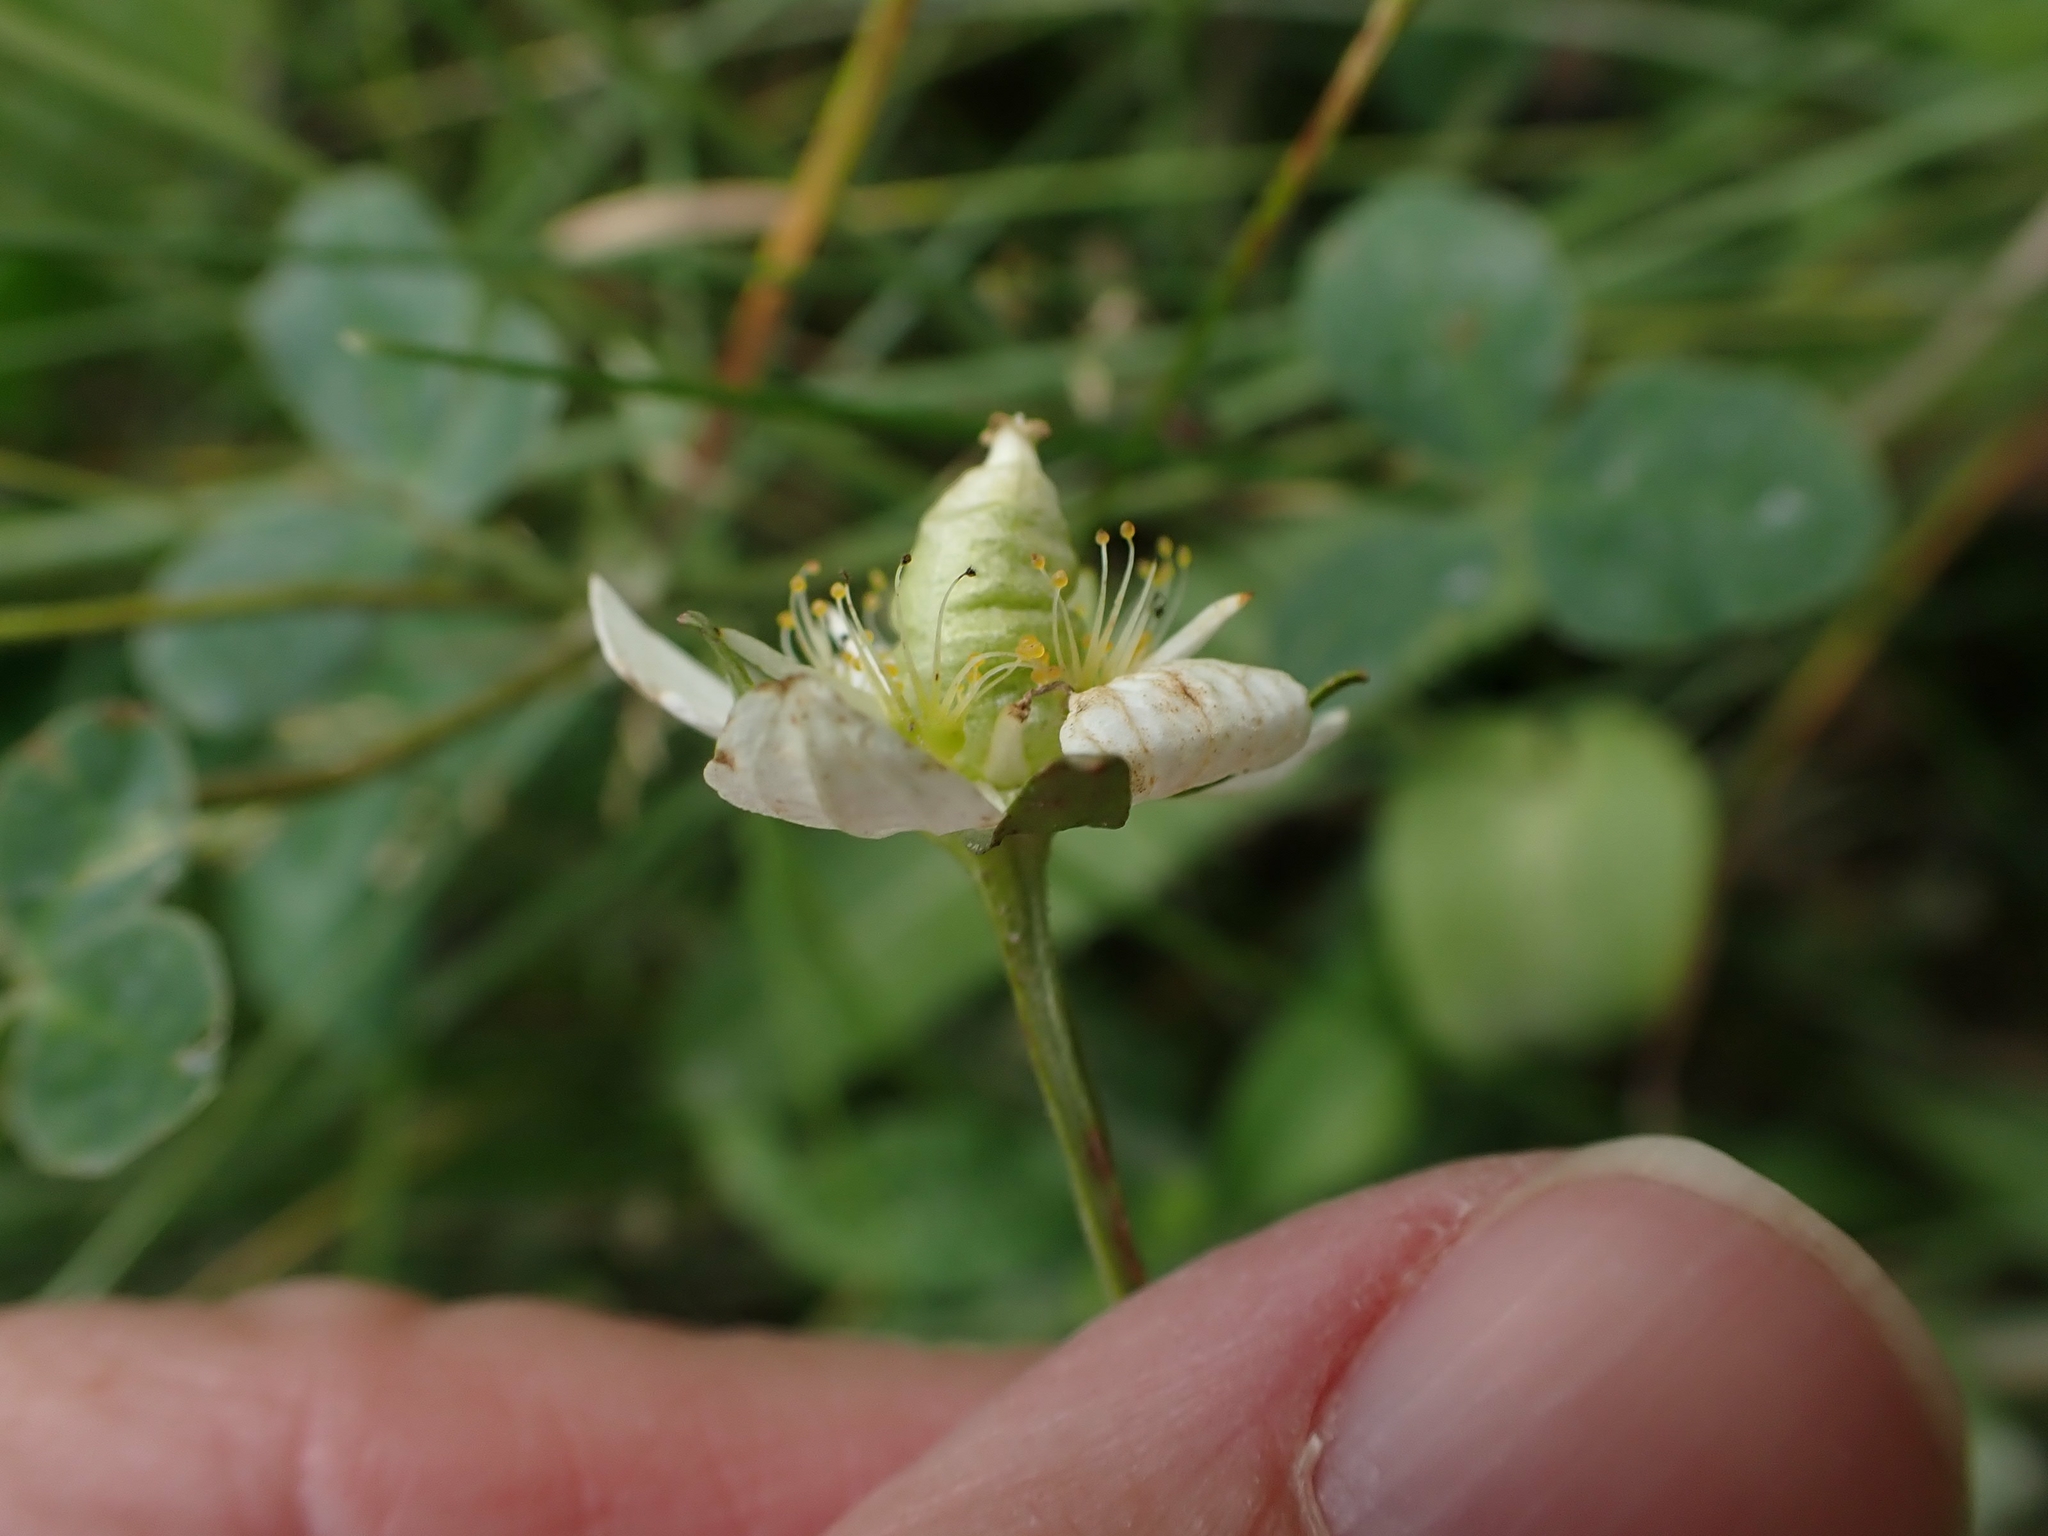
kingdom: Plantae
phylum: Tracheophyta
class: Magnoliopsida
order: Celastrales
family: Parnassiaceae
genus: Parnassia
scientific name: Parnassia palustris
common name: Grass-of-parnassus
